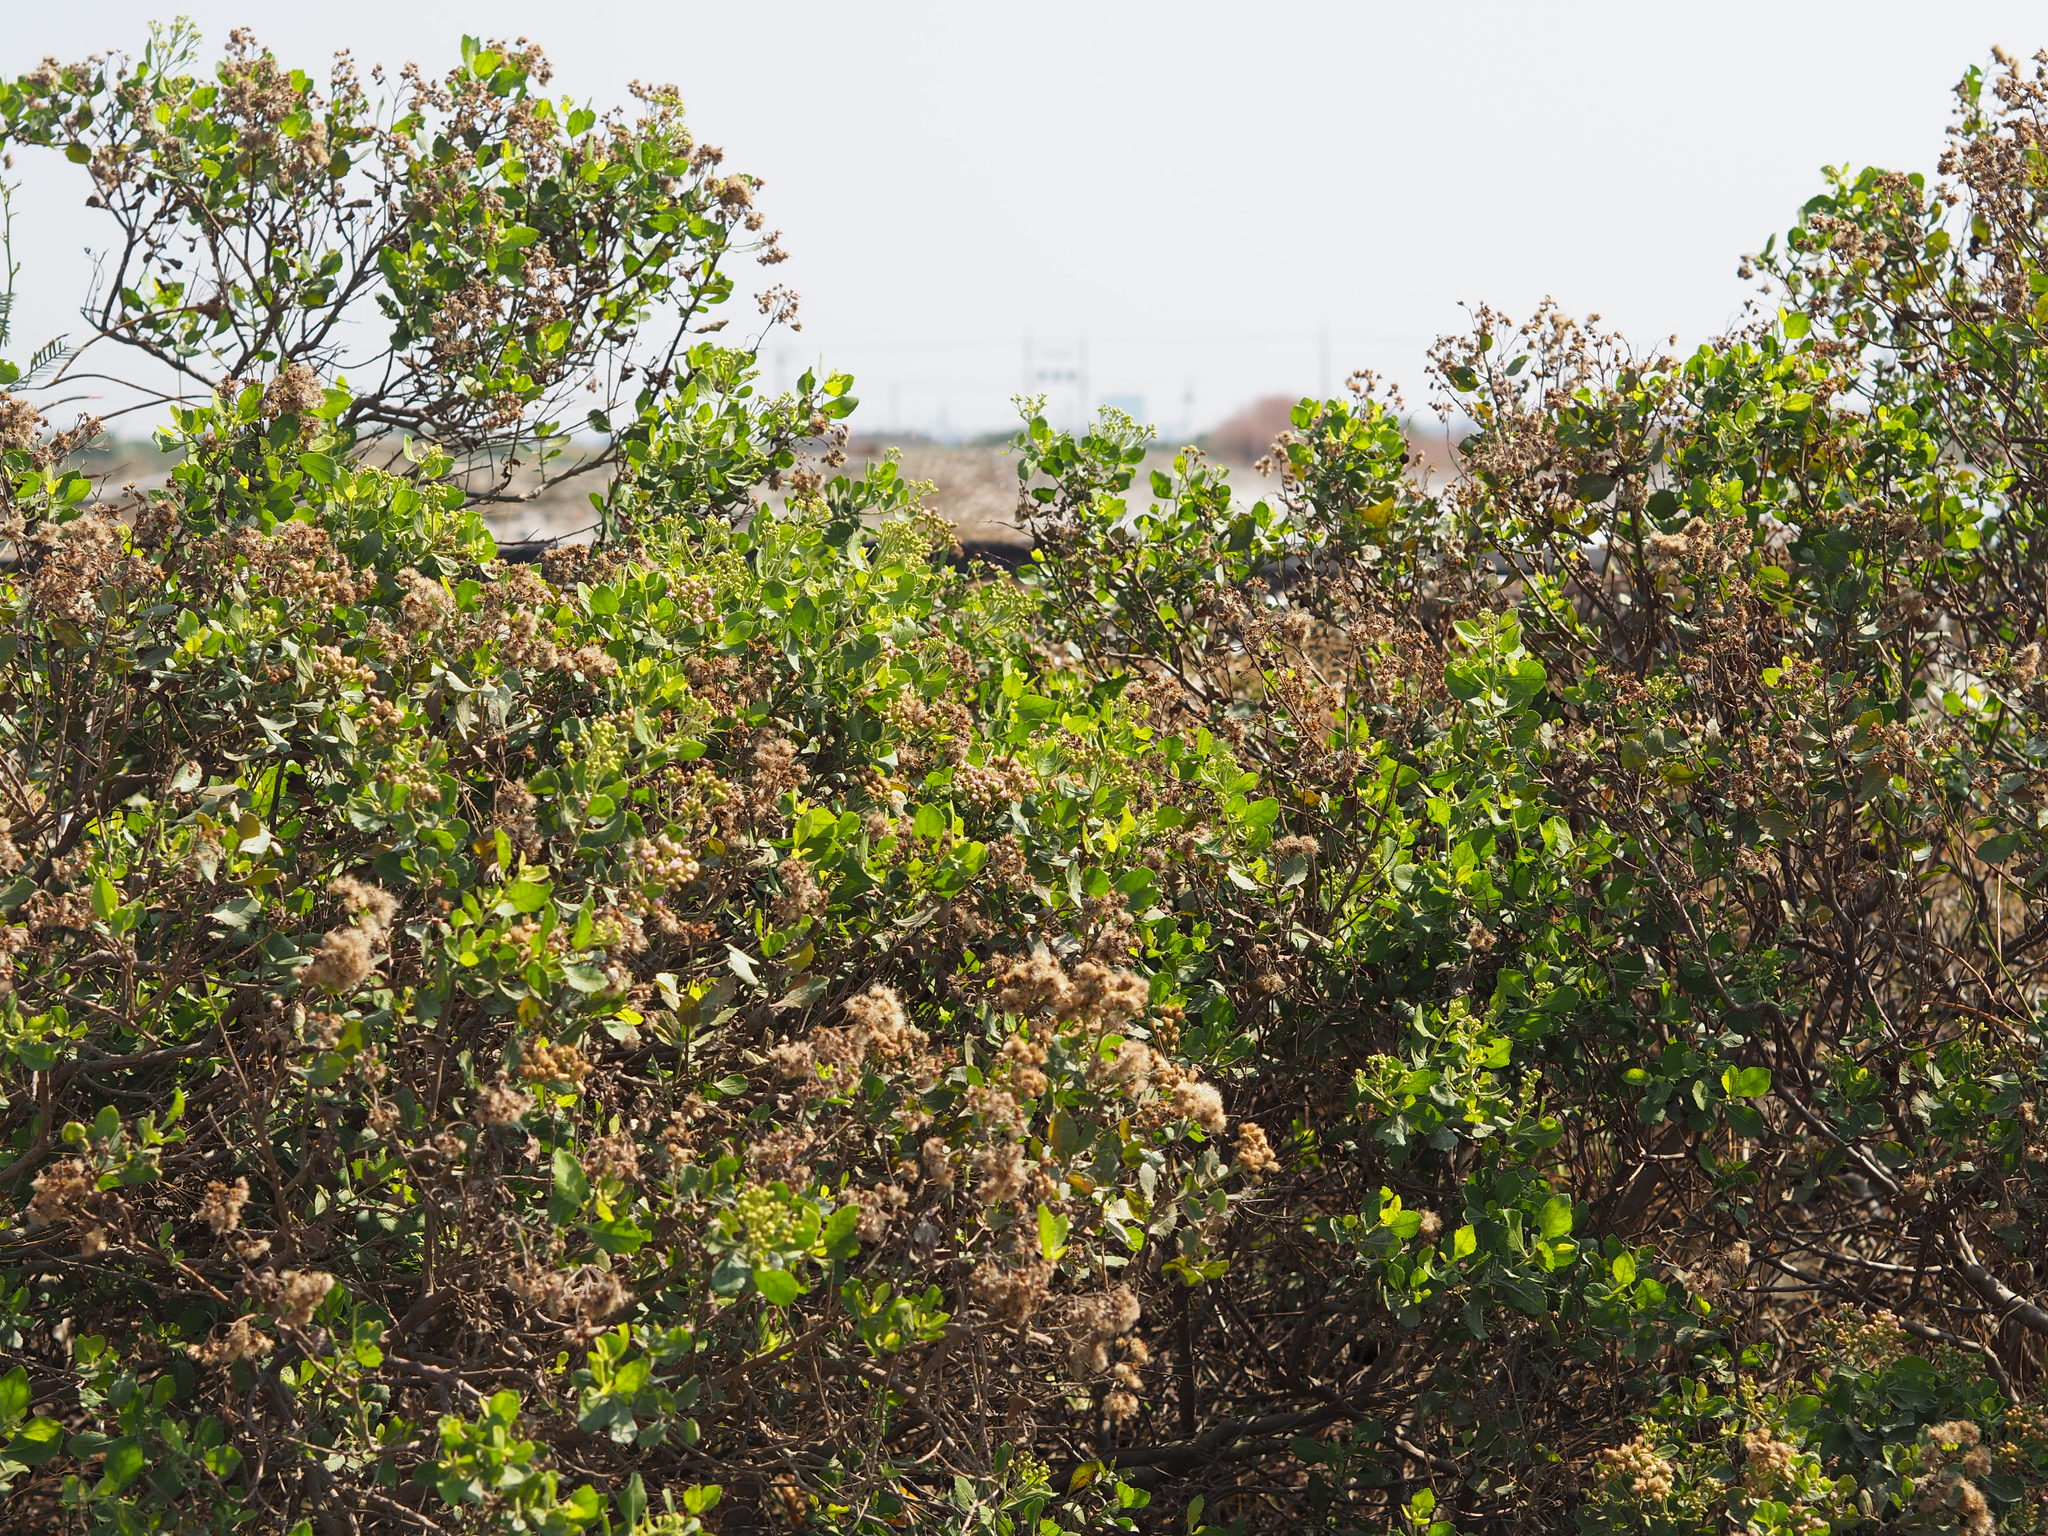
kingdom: Plantae
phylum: Tracheophyta
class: Magnoliopsida
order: Asterales
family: Asteraceae
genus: Pluchea
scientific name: Pluchea indica
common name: Indian fleabane
